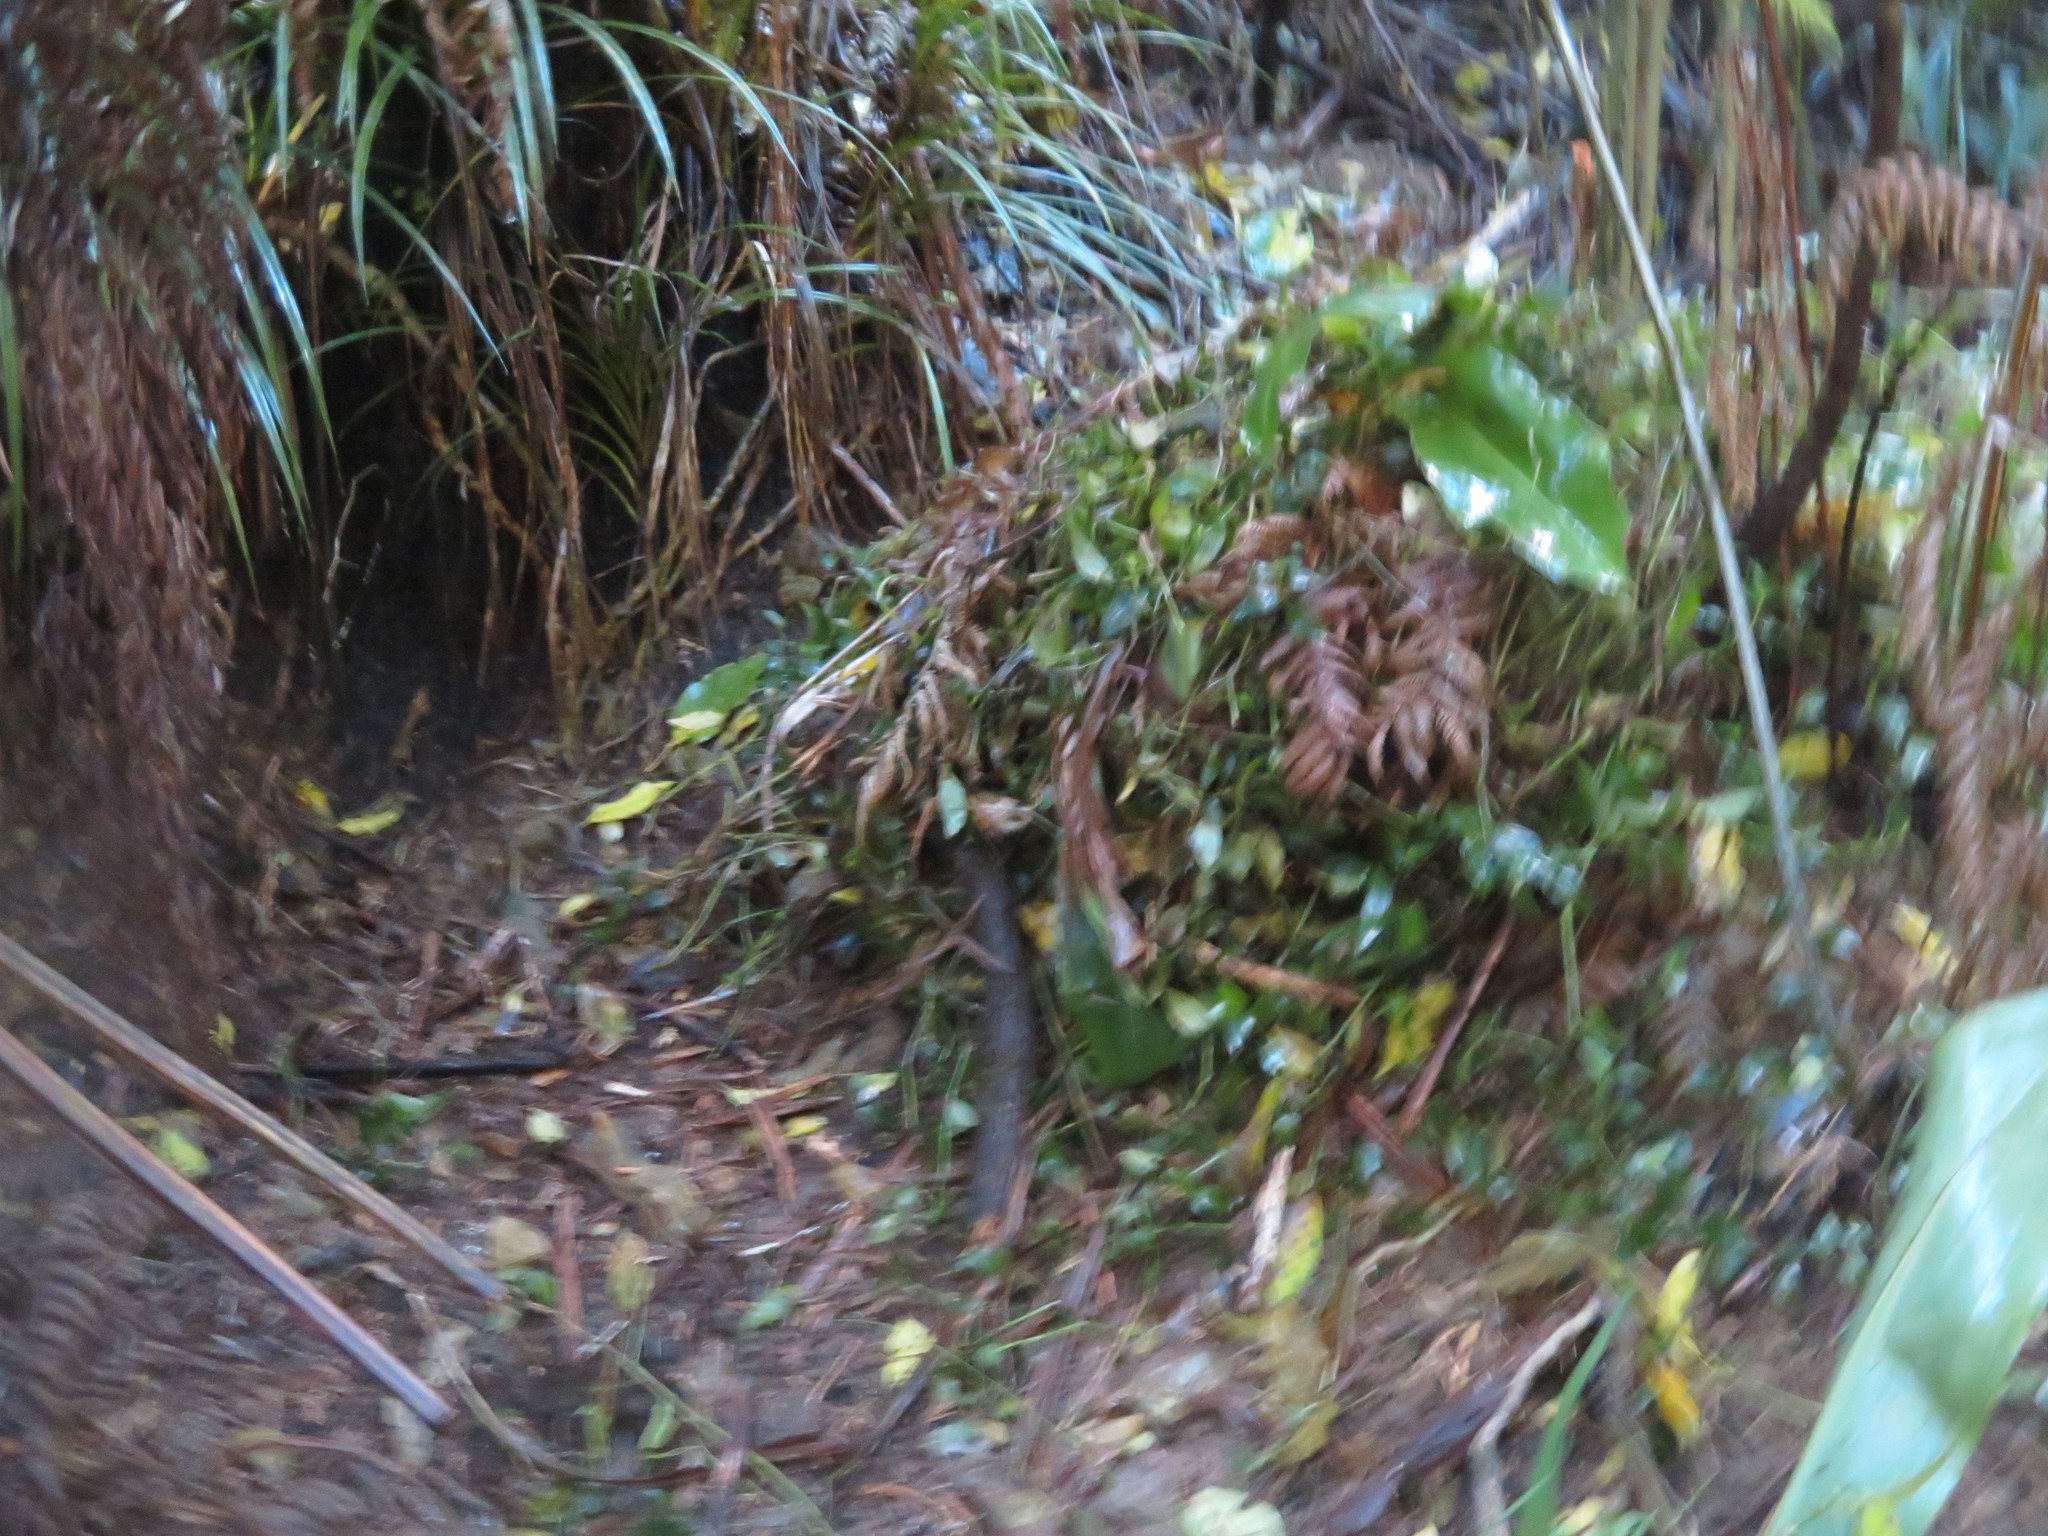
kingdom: Plantae
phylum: Tracheophyta
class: Liliopsida
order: Commelinales
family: Commelinaceae
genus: Tradescantia
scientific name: Tradescantia fluminensis
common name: Wandering-jew
